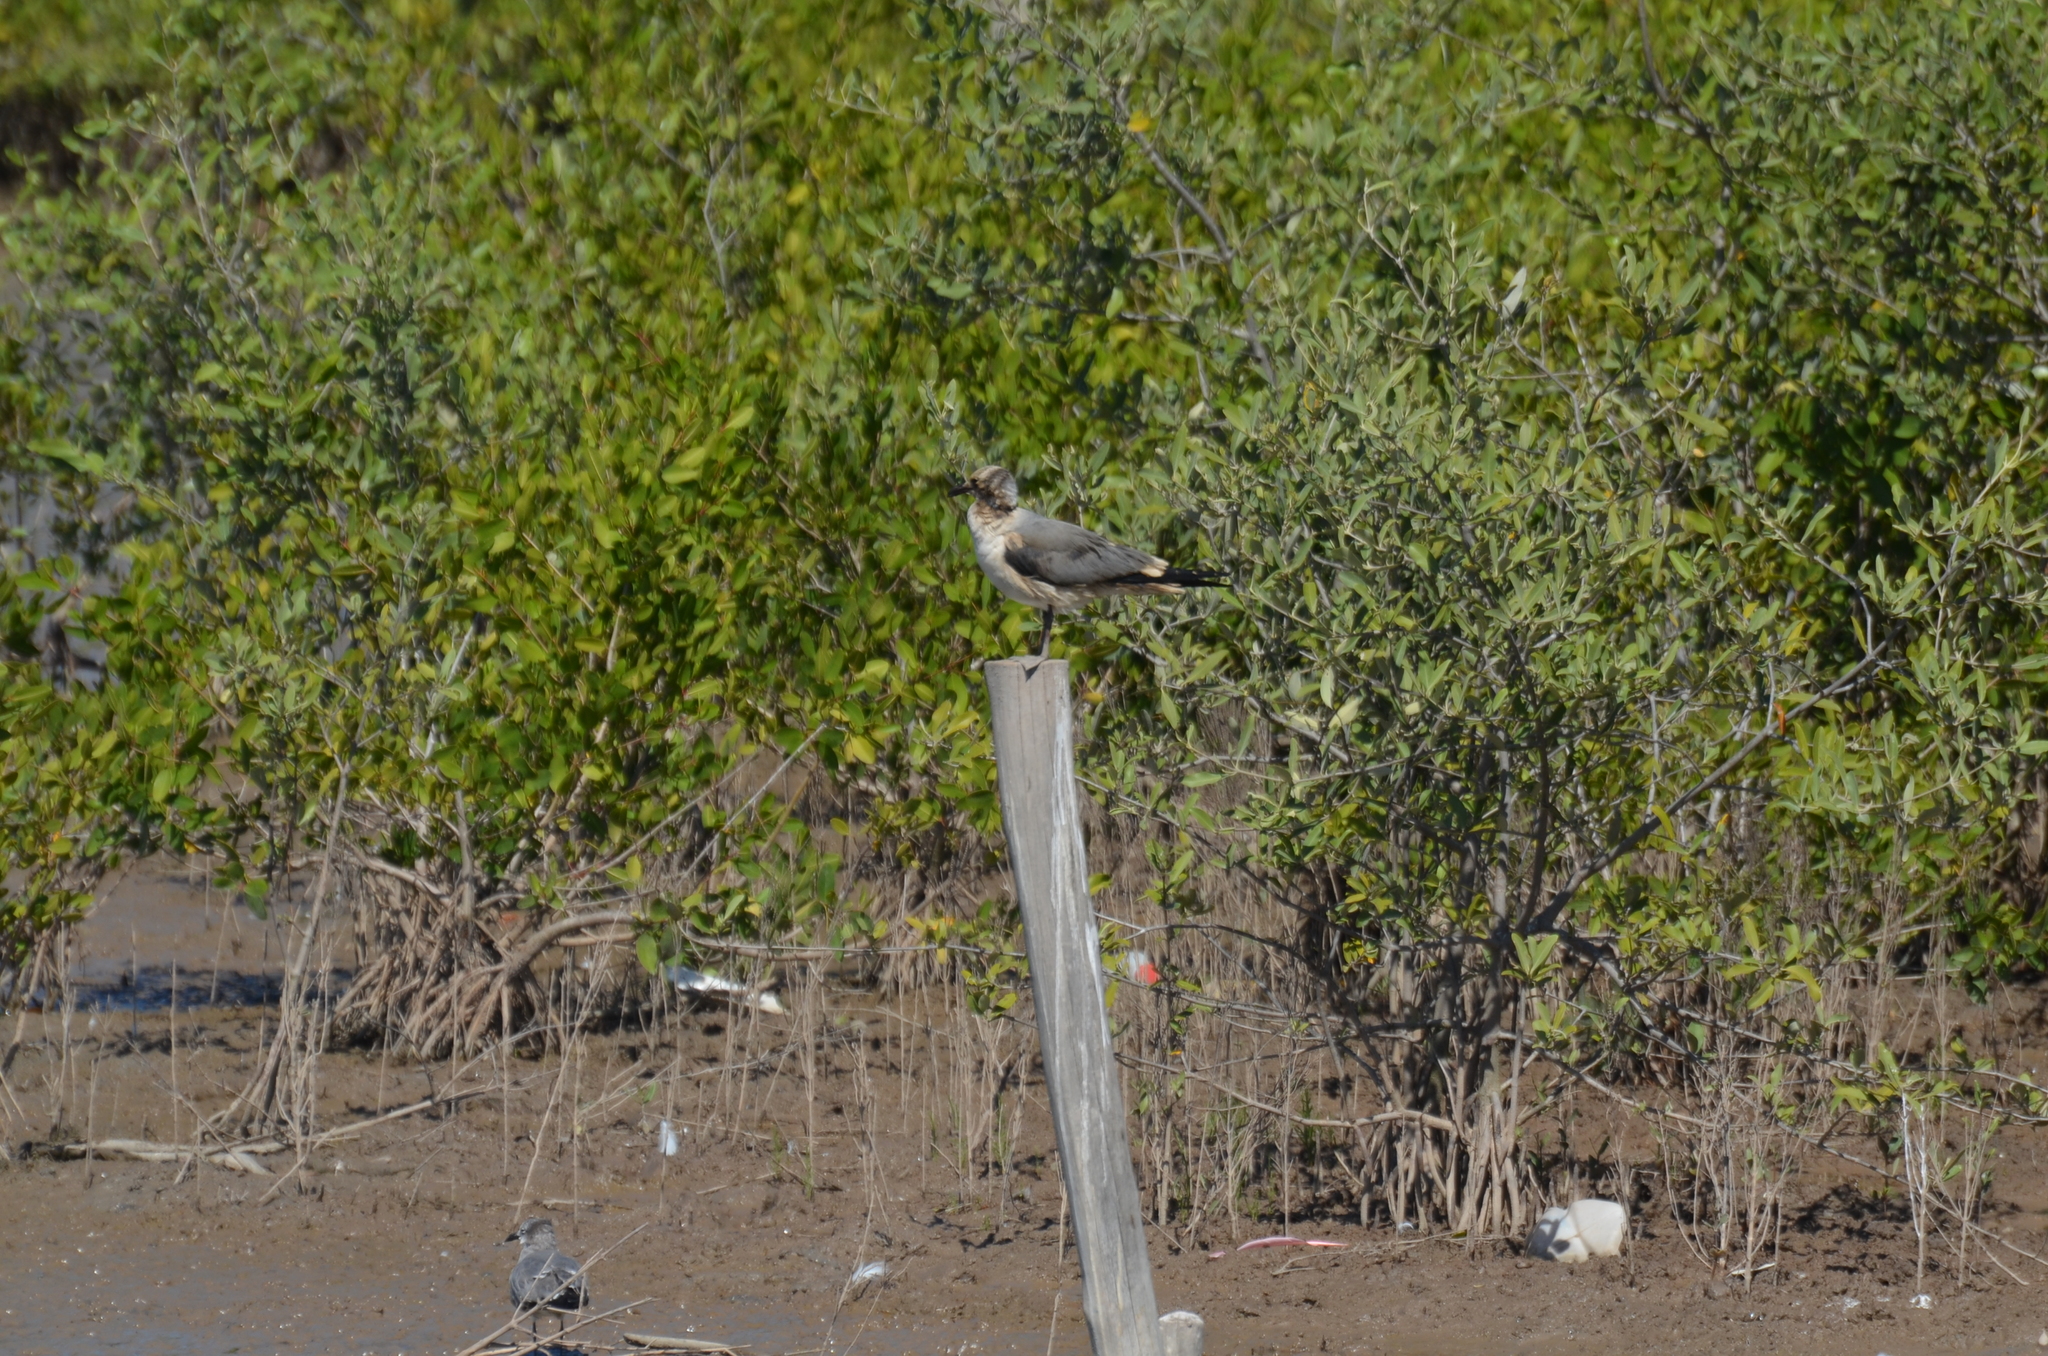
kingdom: Animalia
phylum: Chordata
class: Aves
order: Charadriiformes
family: Laridae
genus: Leucophaeus
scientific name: Leucophaeus atricilla
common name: Laughing gull
